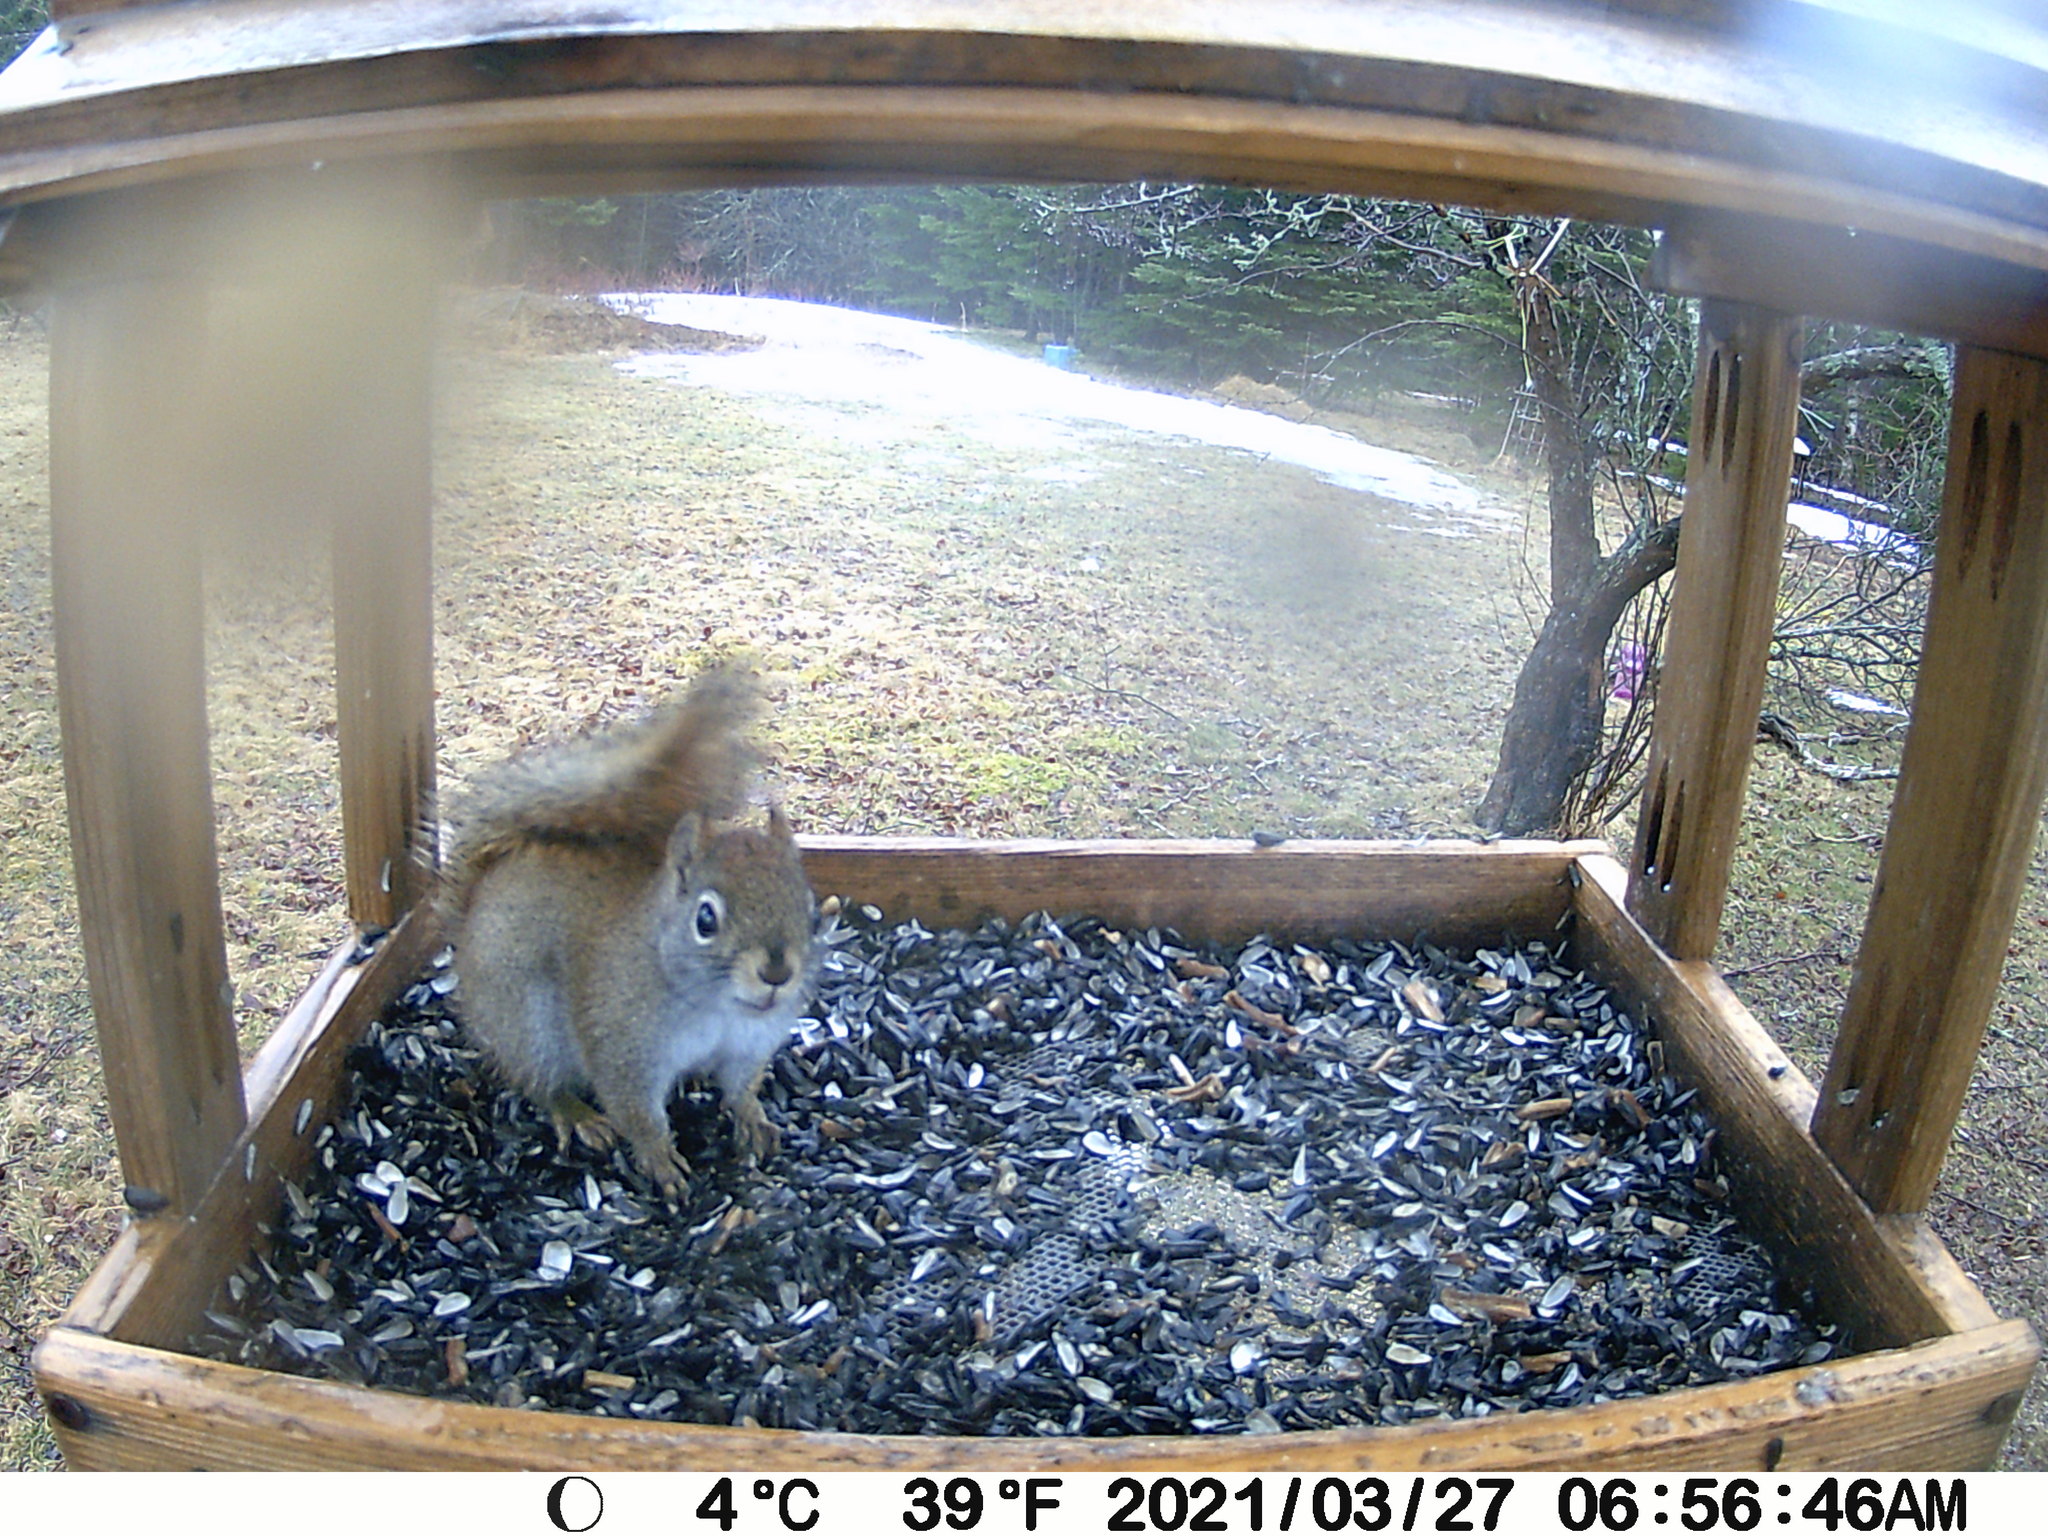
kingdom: Animalia
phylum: Chordata
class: Mammalia
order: Rodentia
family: Sciuridae
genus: Tamiasciurus
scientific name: Tamiasciurus hudsonicus
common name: Red squirrel
